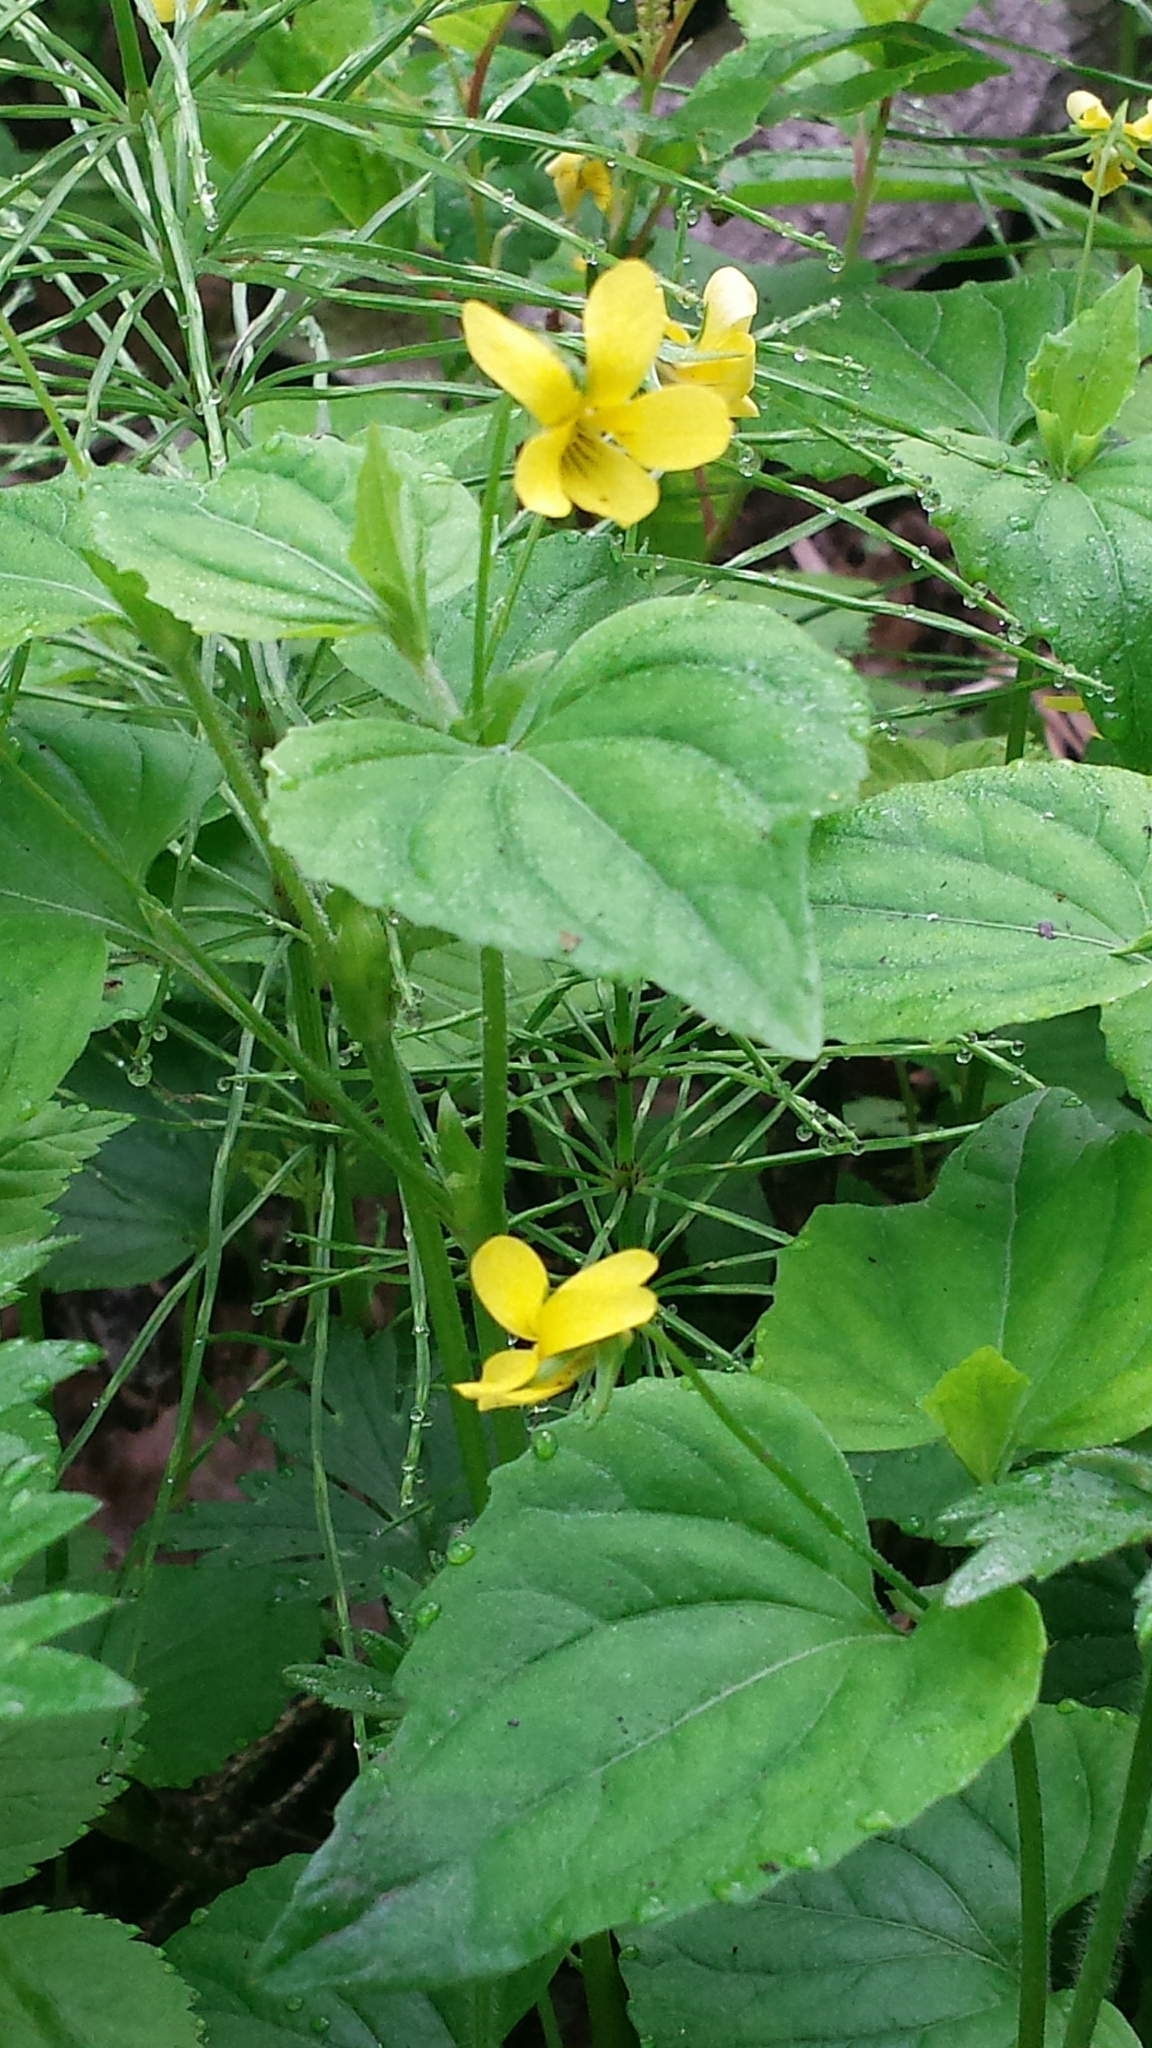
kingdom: Plantae
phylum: Tracheophyta
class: Magnoliopsida
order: Malpighiales
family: Violaceae
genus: Viola
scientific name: Viola eriocarpa
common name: Smooth yellow violet
